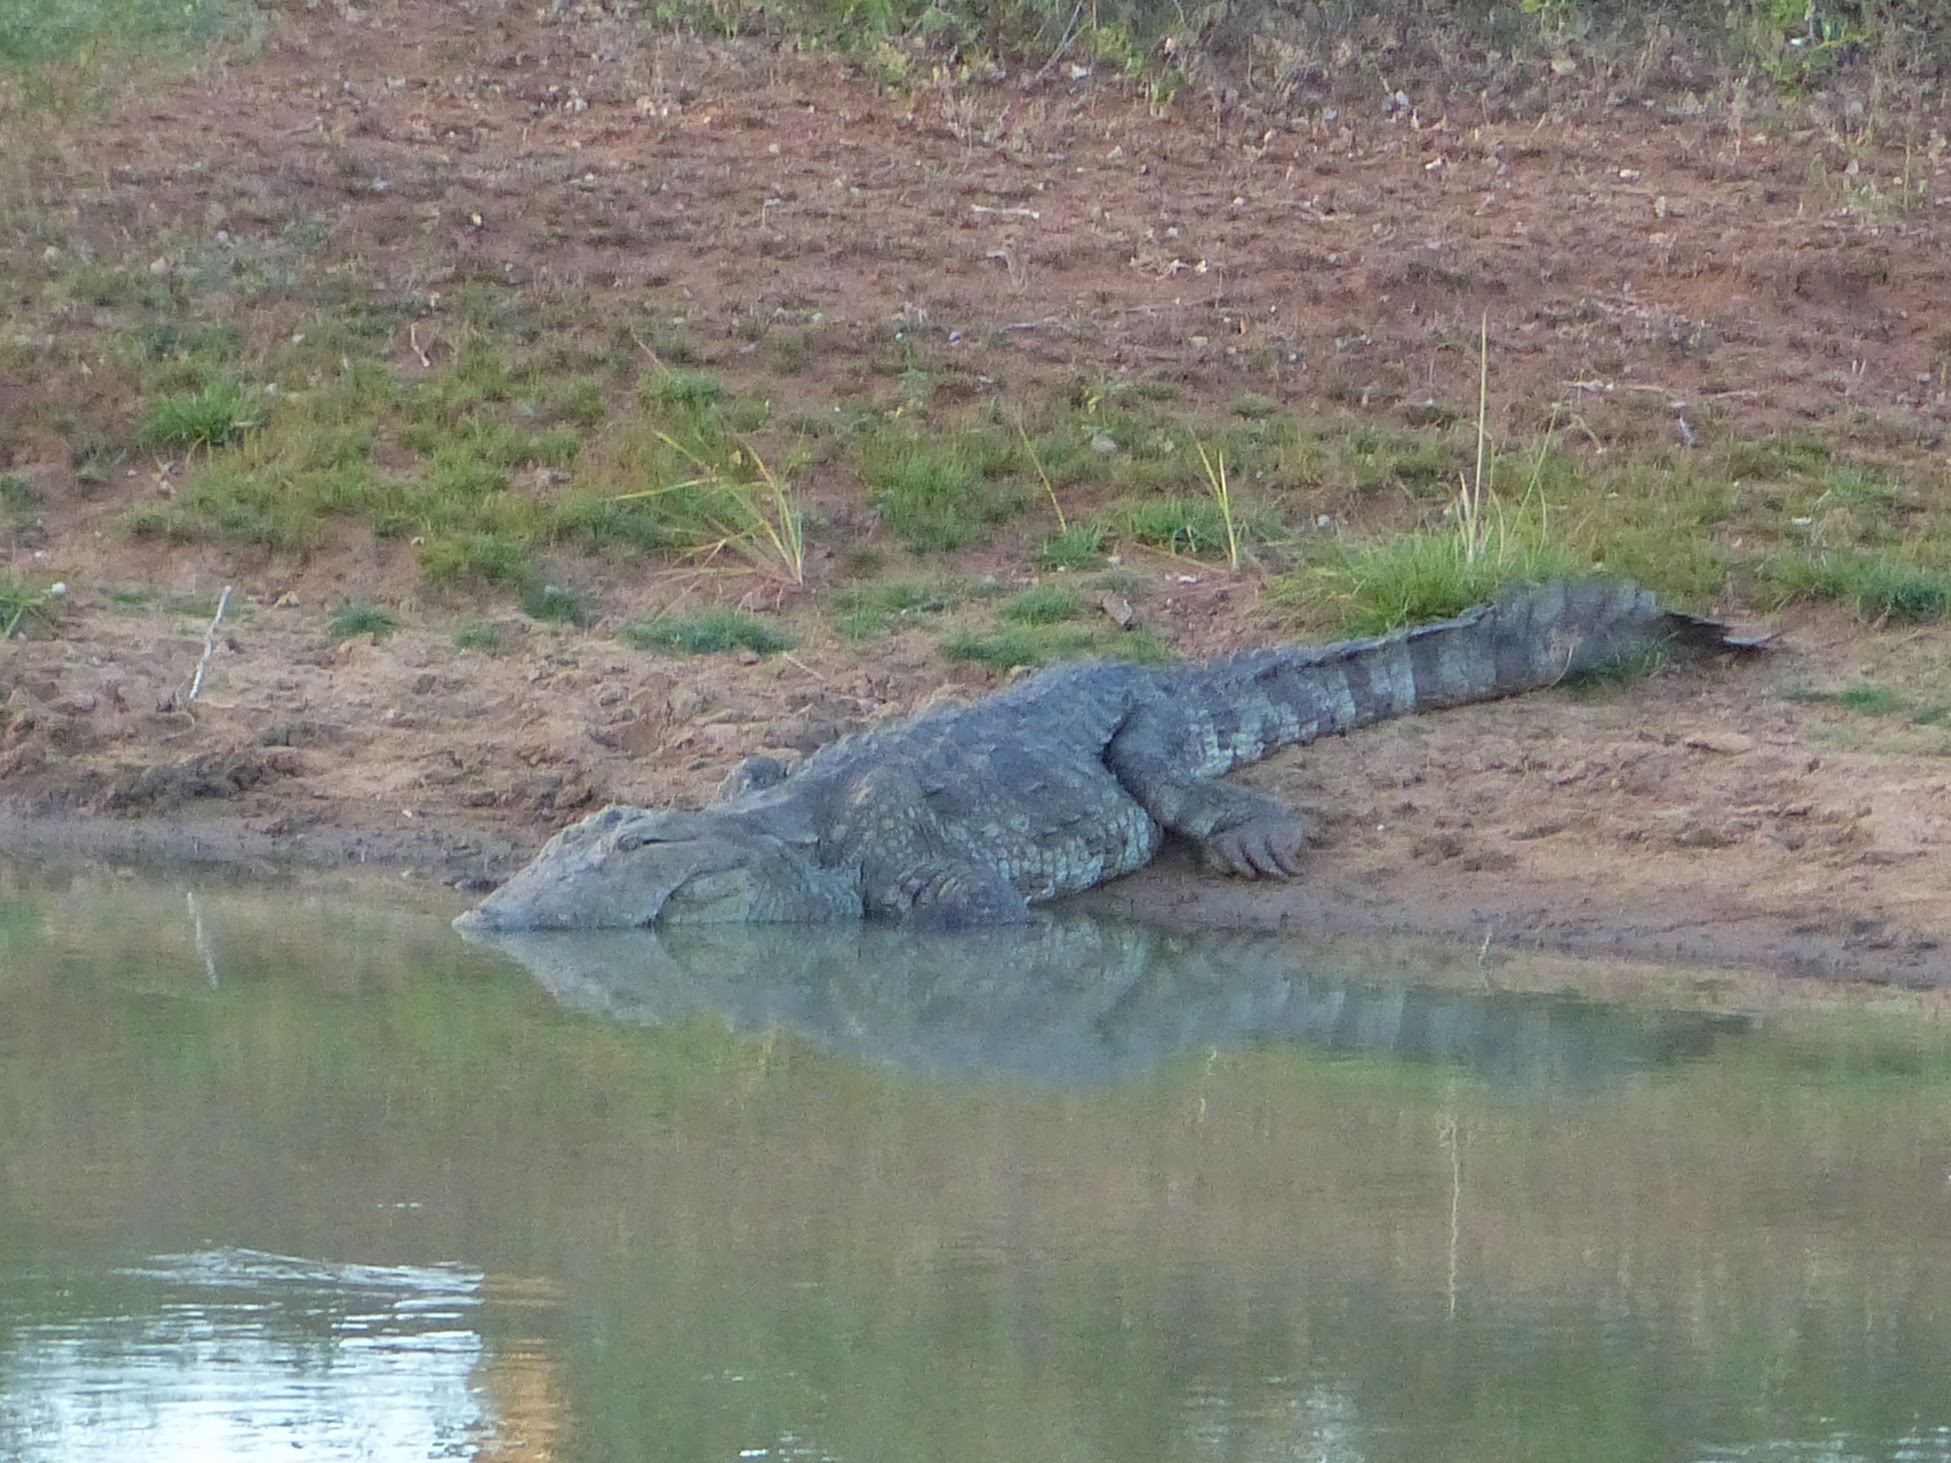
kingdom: Animalia
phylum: Chordata
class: Crocodylia
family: Crocodylidae
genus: Crocodylus
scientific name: Crocodylus palustris
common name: Mugger crocodile
